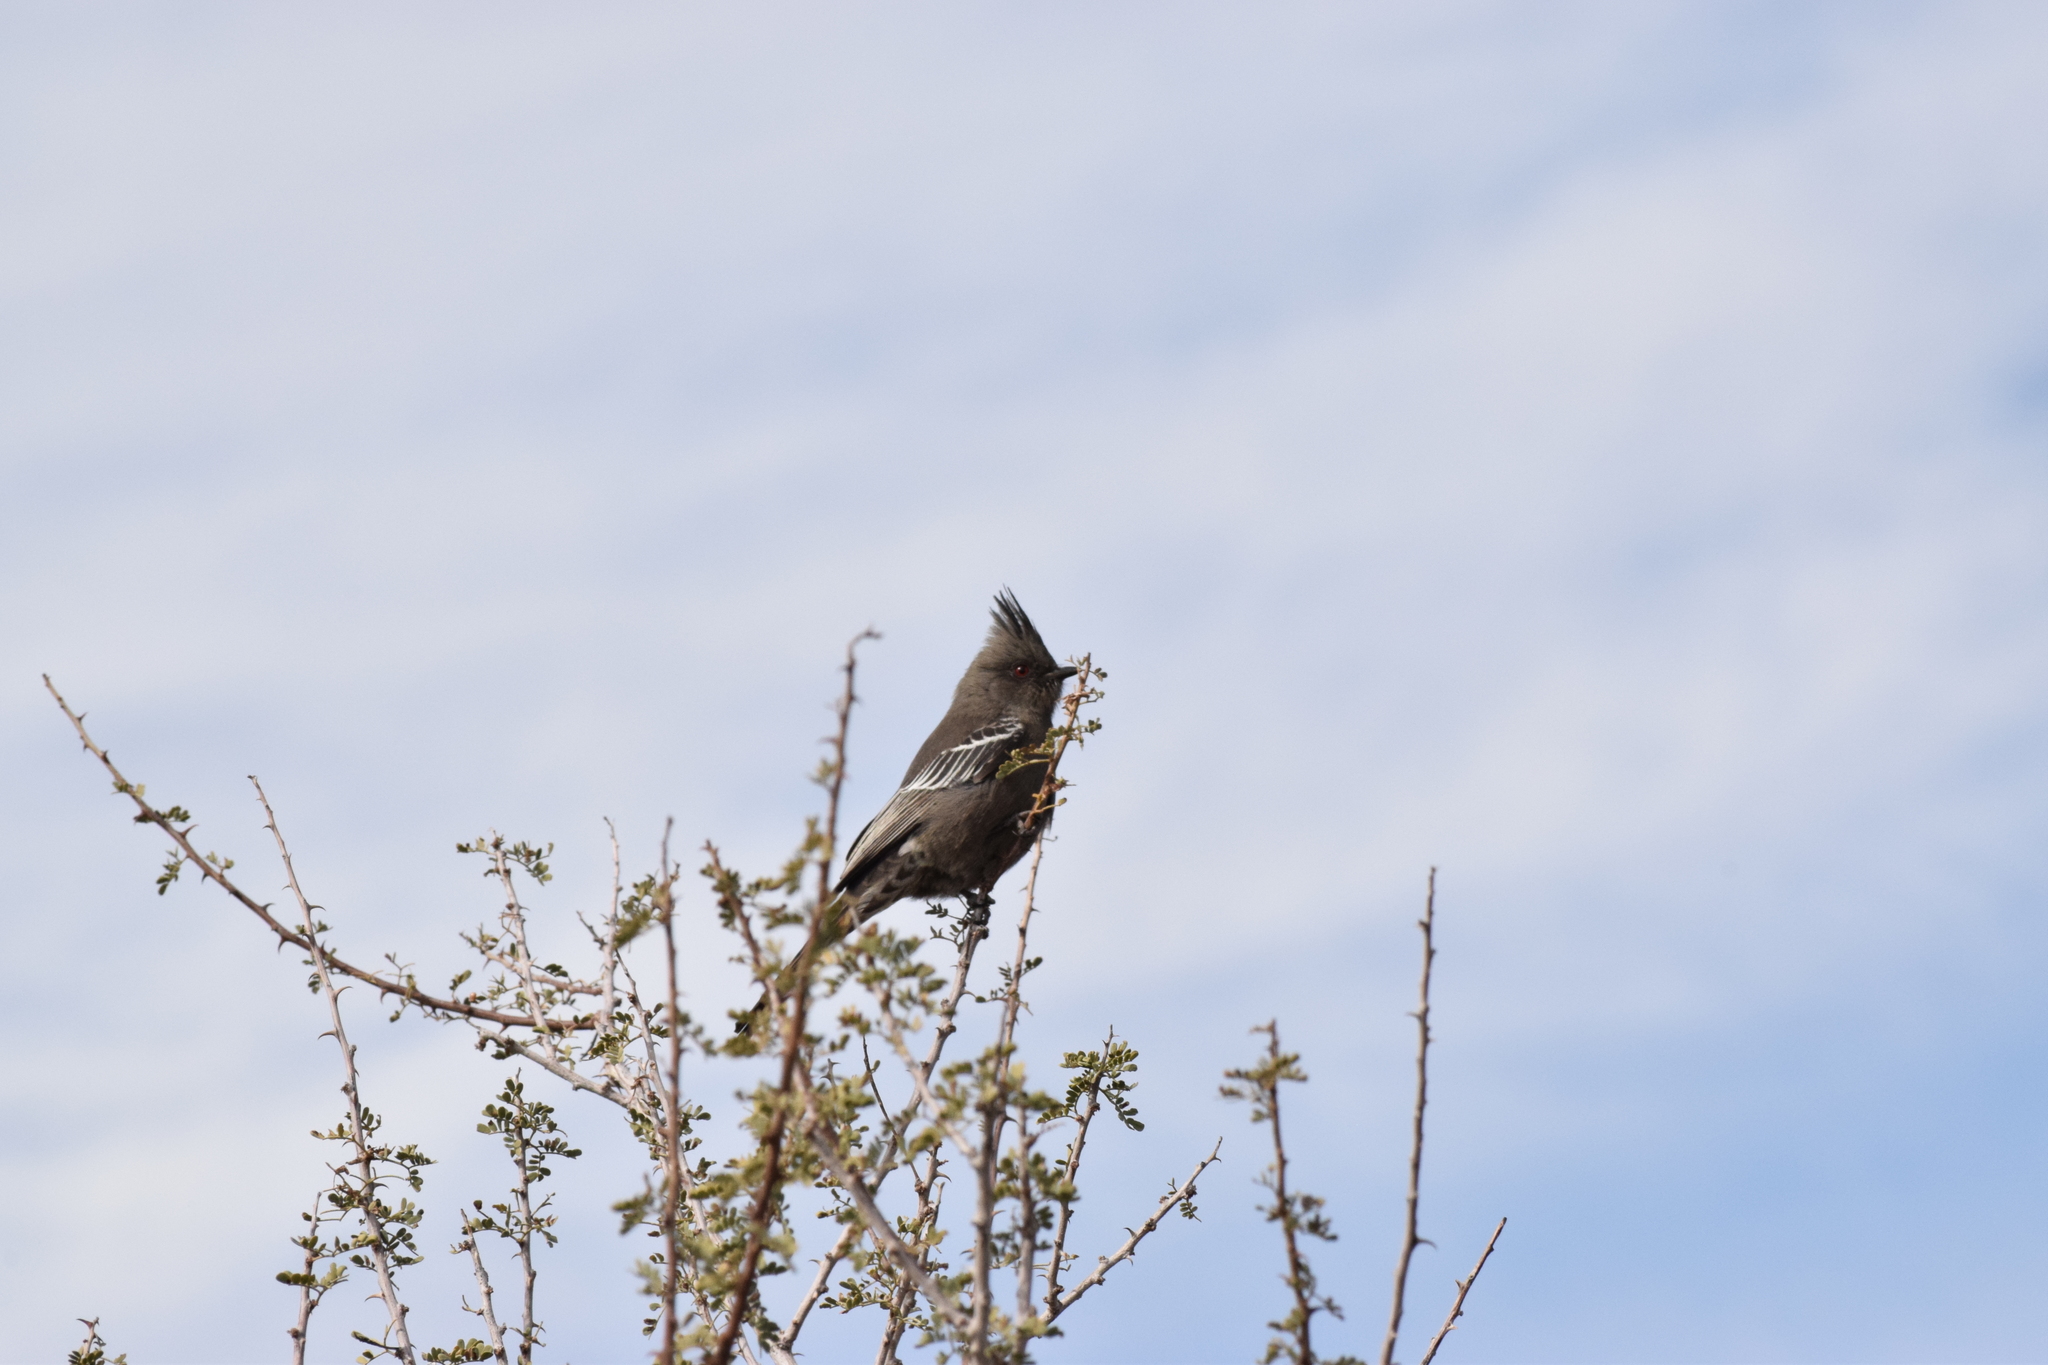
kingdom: Animalia
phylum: Chordata
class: Aves
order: Passeriformes
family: Ptilogonatidae
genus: Phainopepla
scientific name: Phainopepla nitens
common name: Phainopepla
